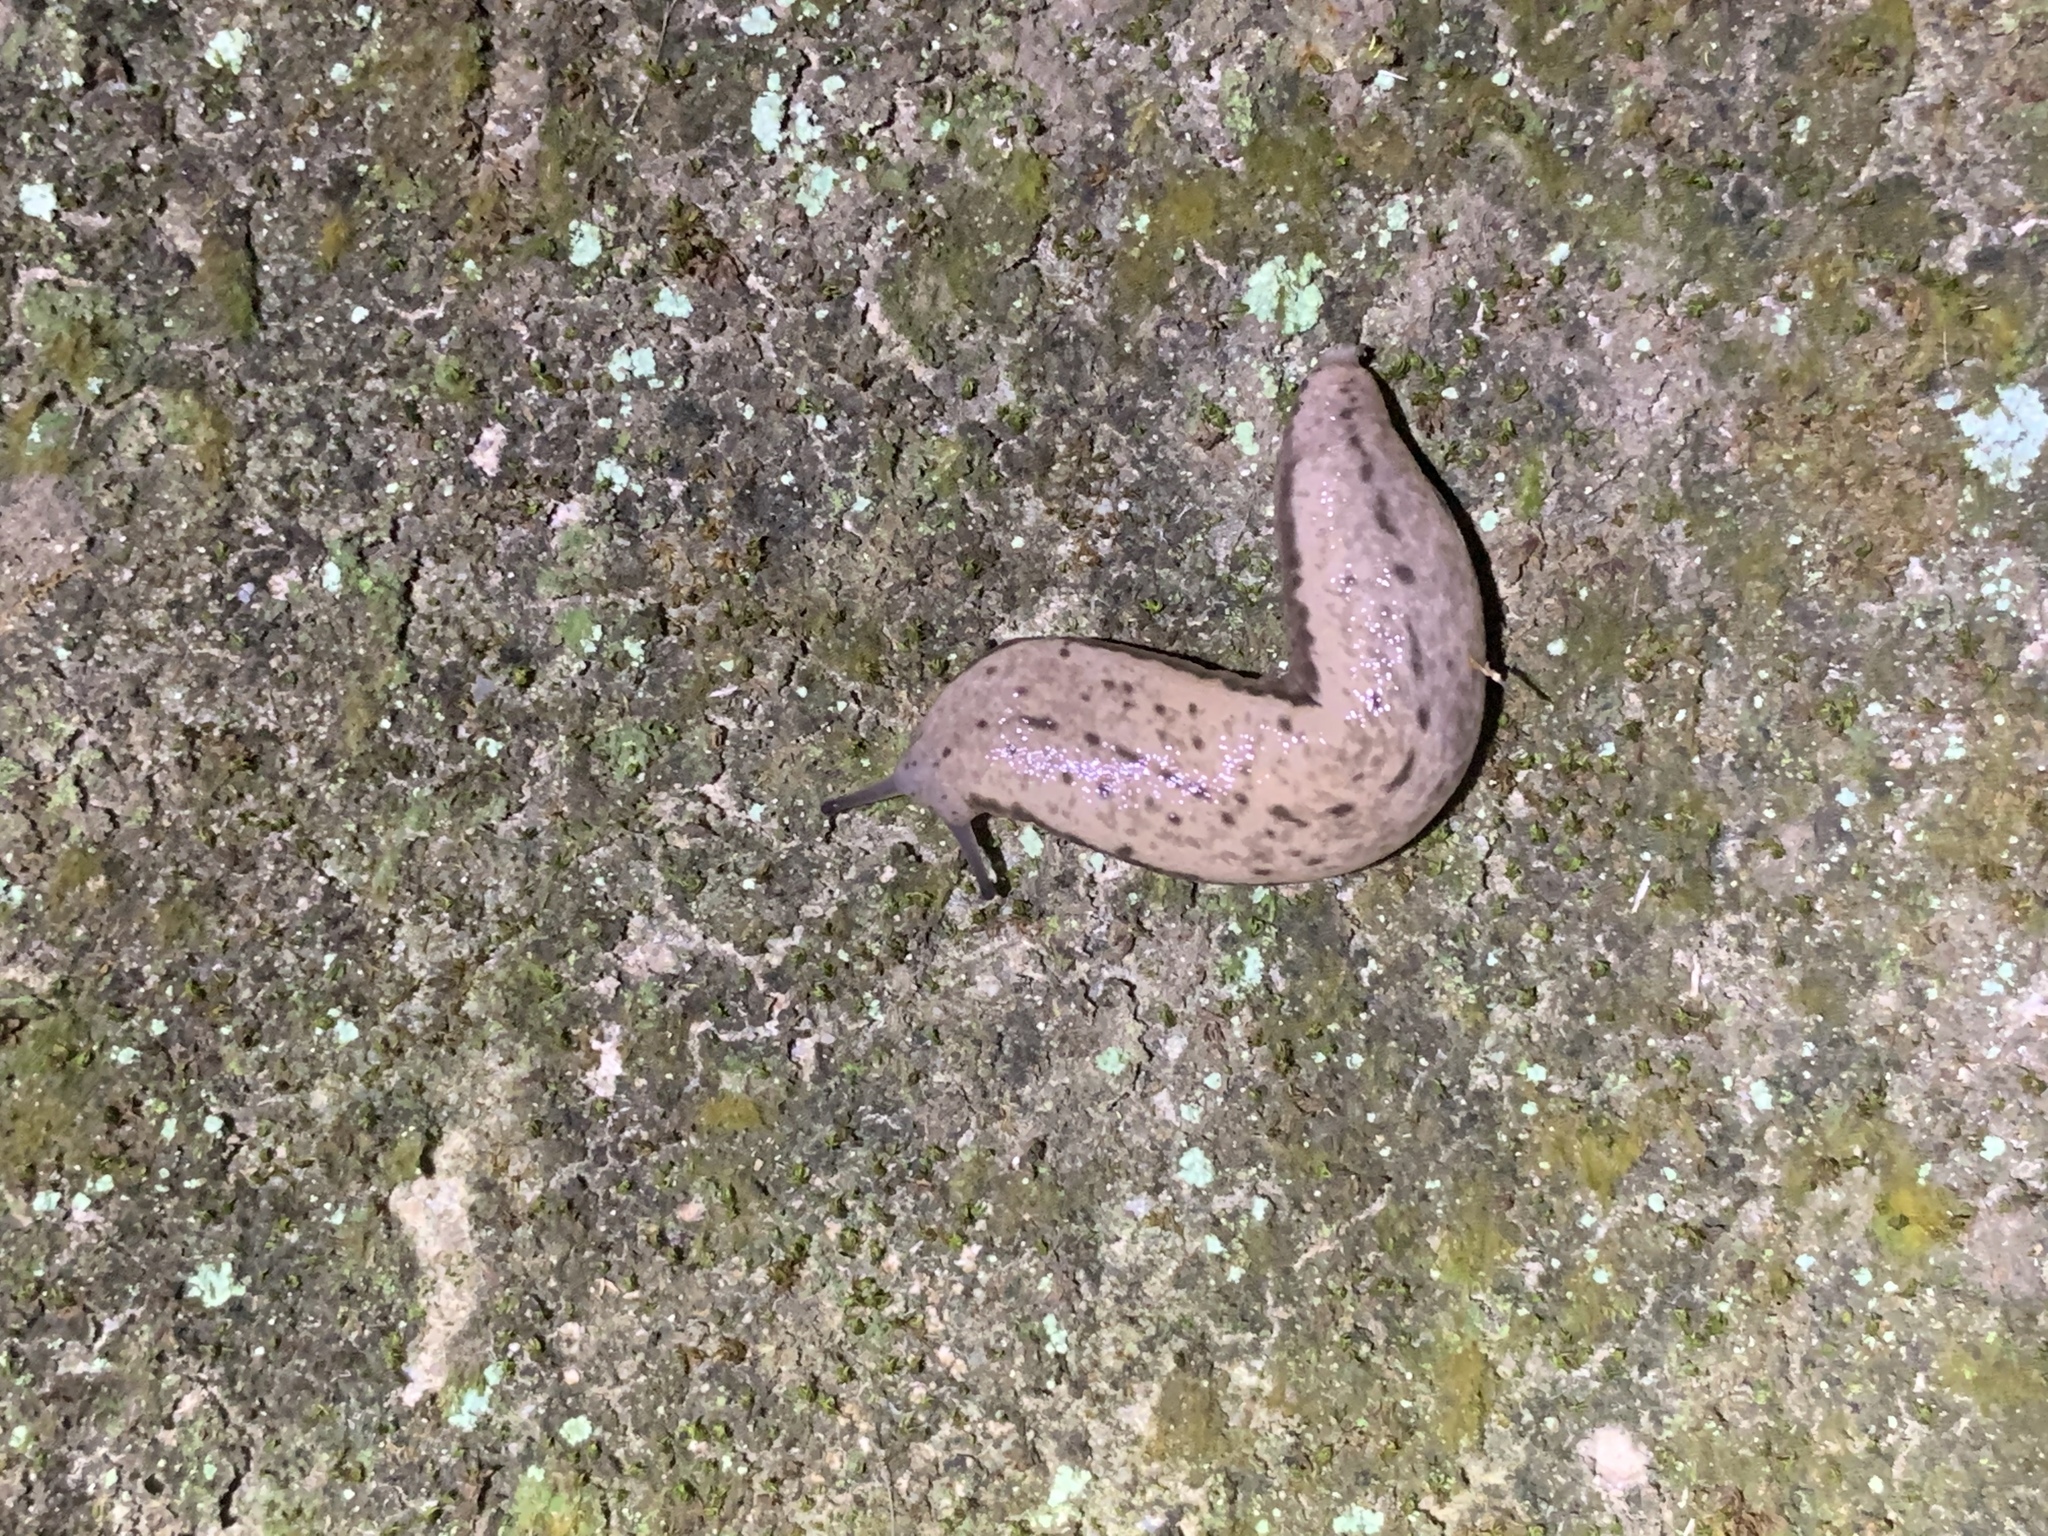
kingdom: Animalia
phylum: Mollusca
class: Gastropoda
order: Stylommatophora
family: Philomycidae
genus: Meghimatium
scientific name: Meghimatium bilineatum
